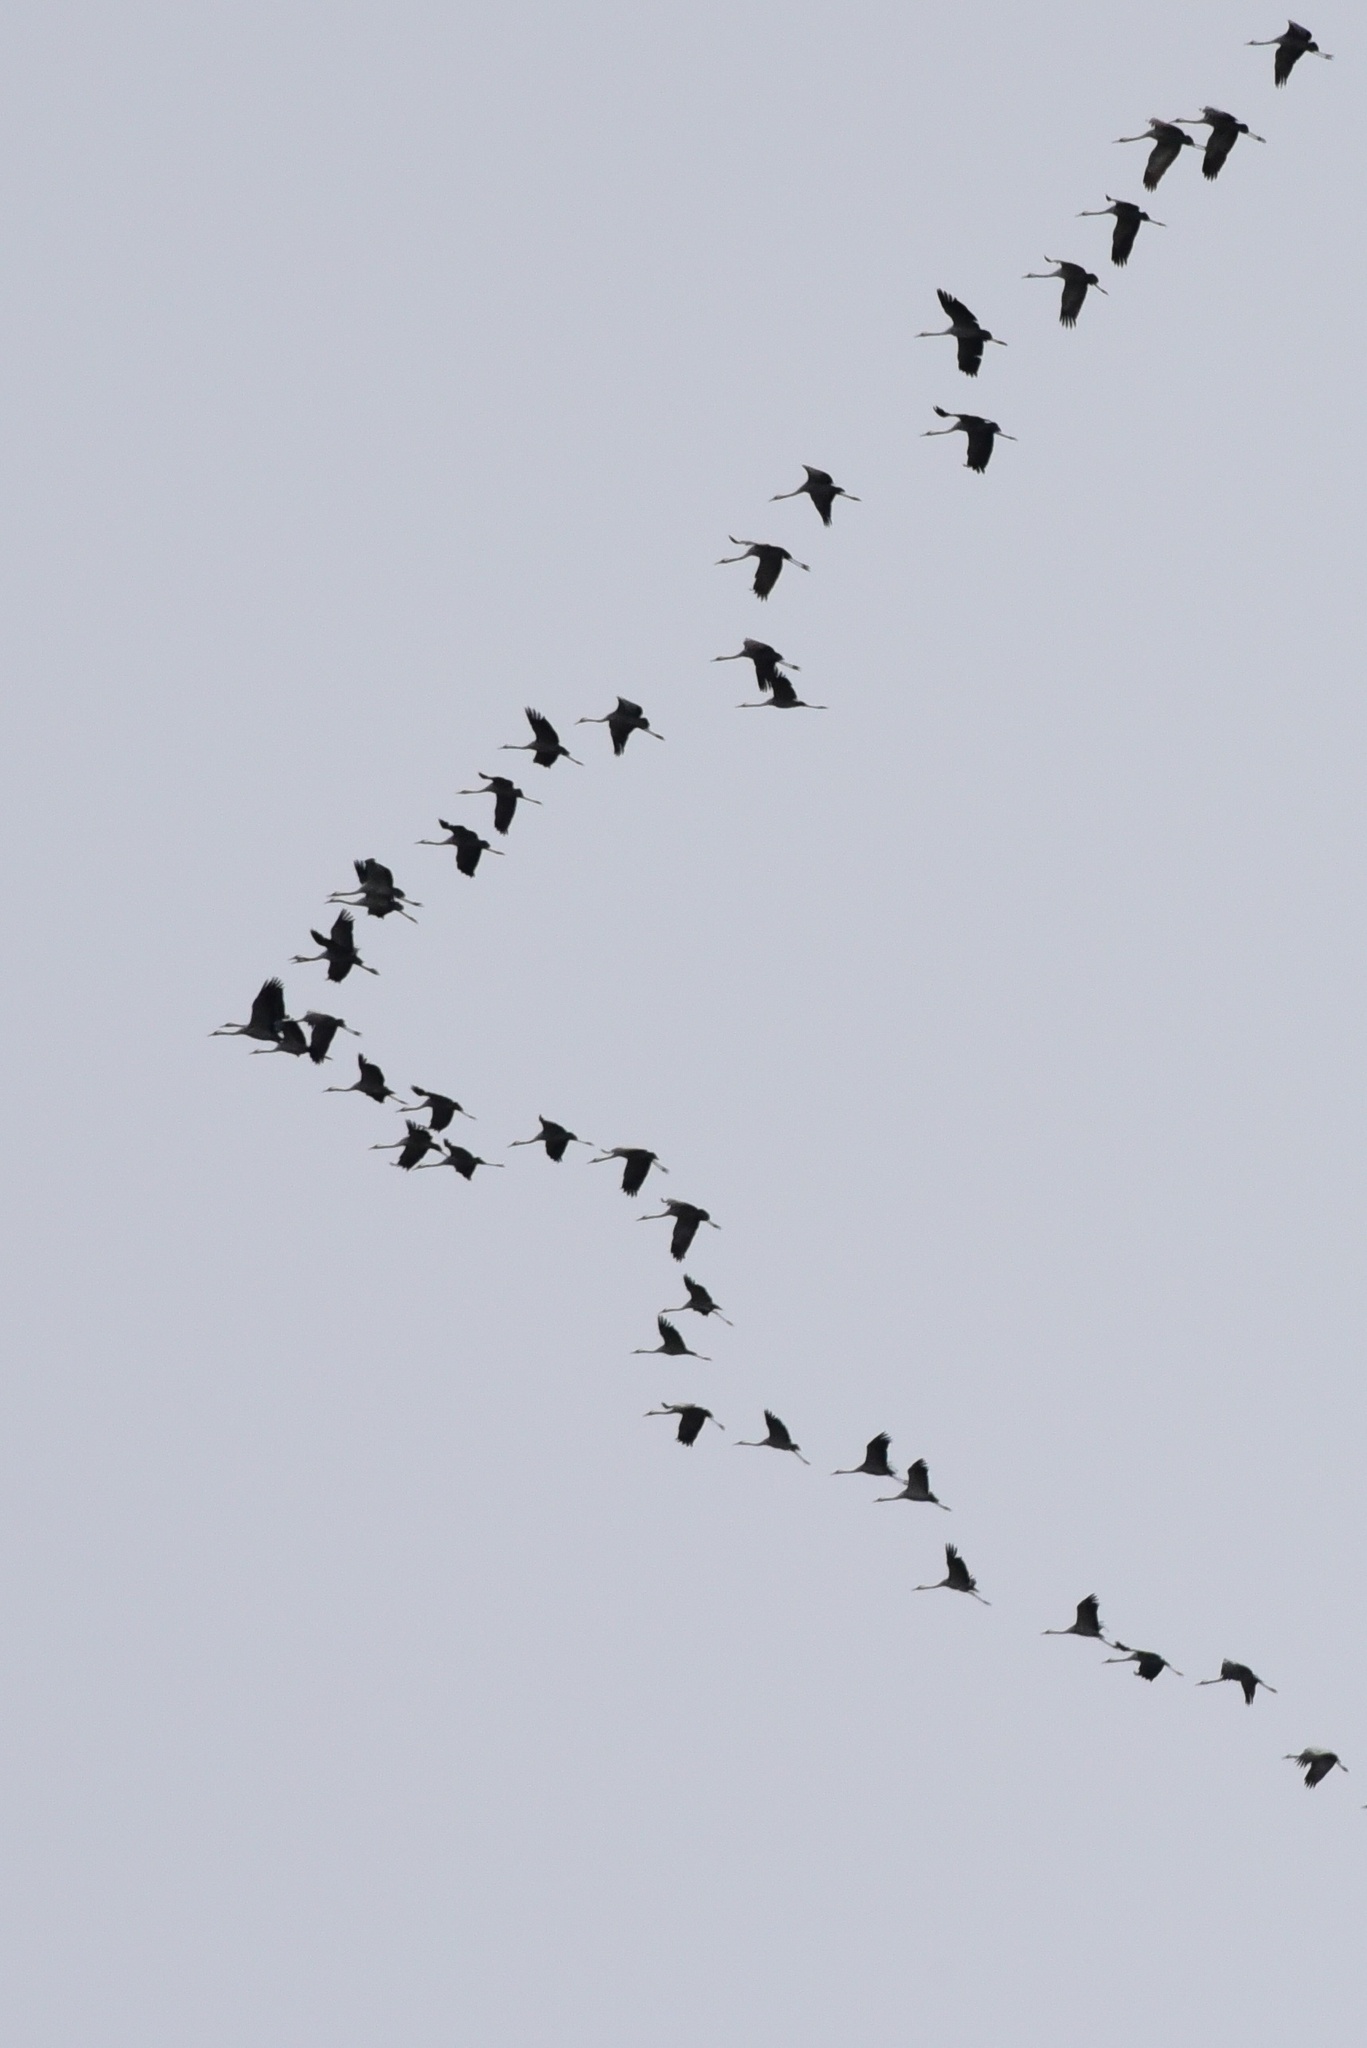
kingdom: Animalia
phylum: Chordata
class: Aves
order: Gruiformes
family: Gruidae
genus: Grus
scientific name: Grus grus
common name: Common crane
